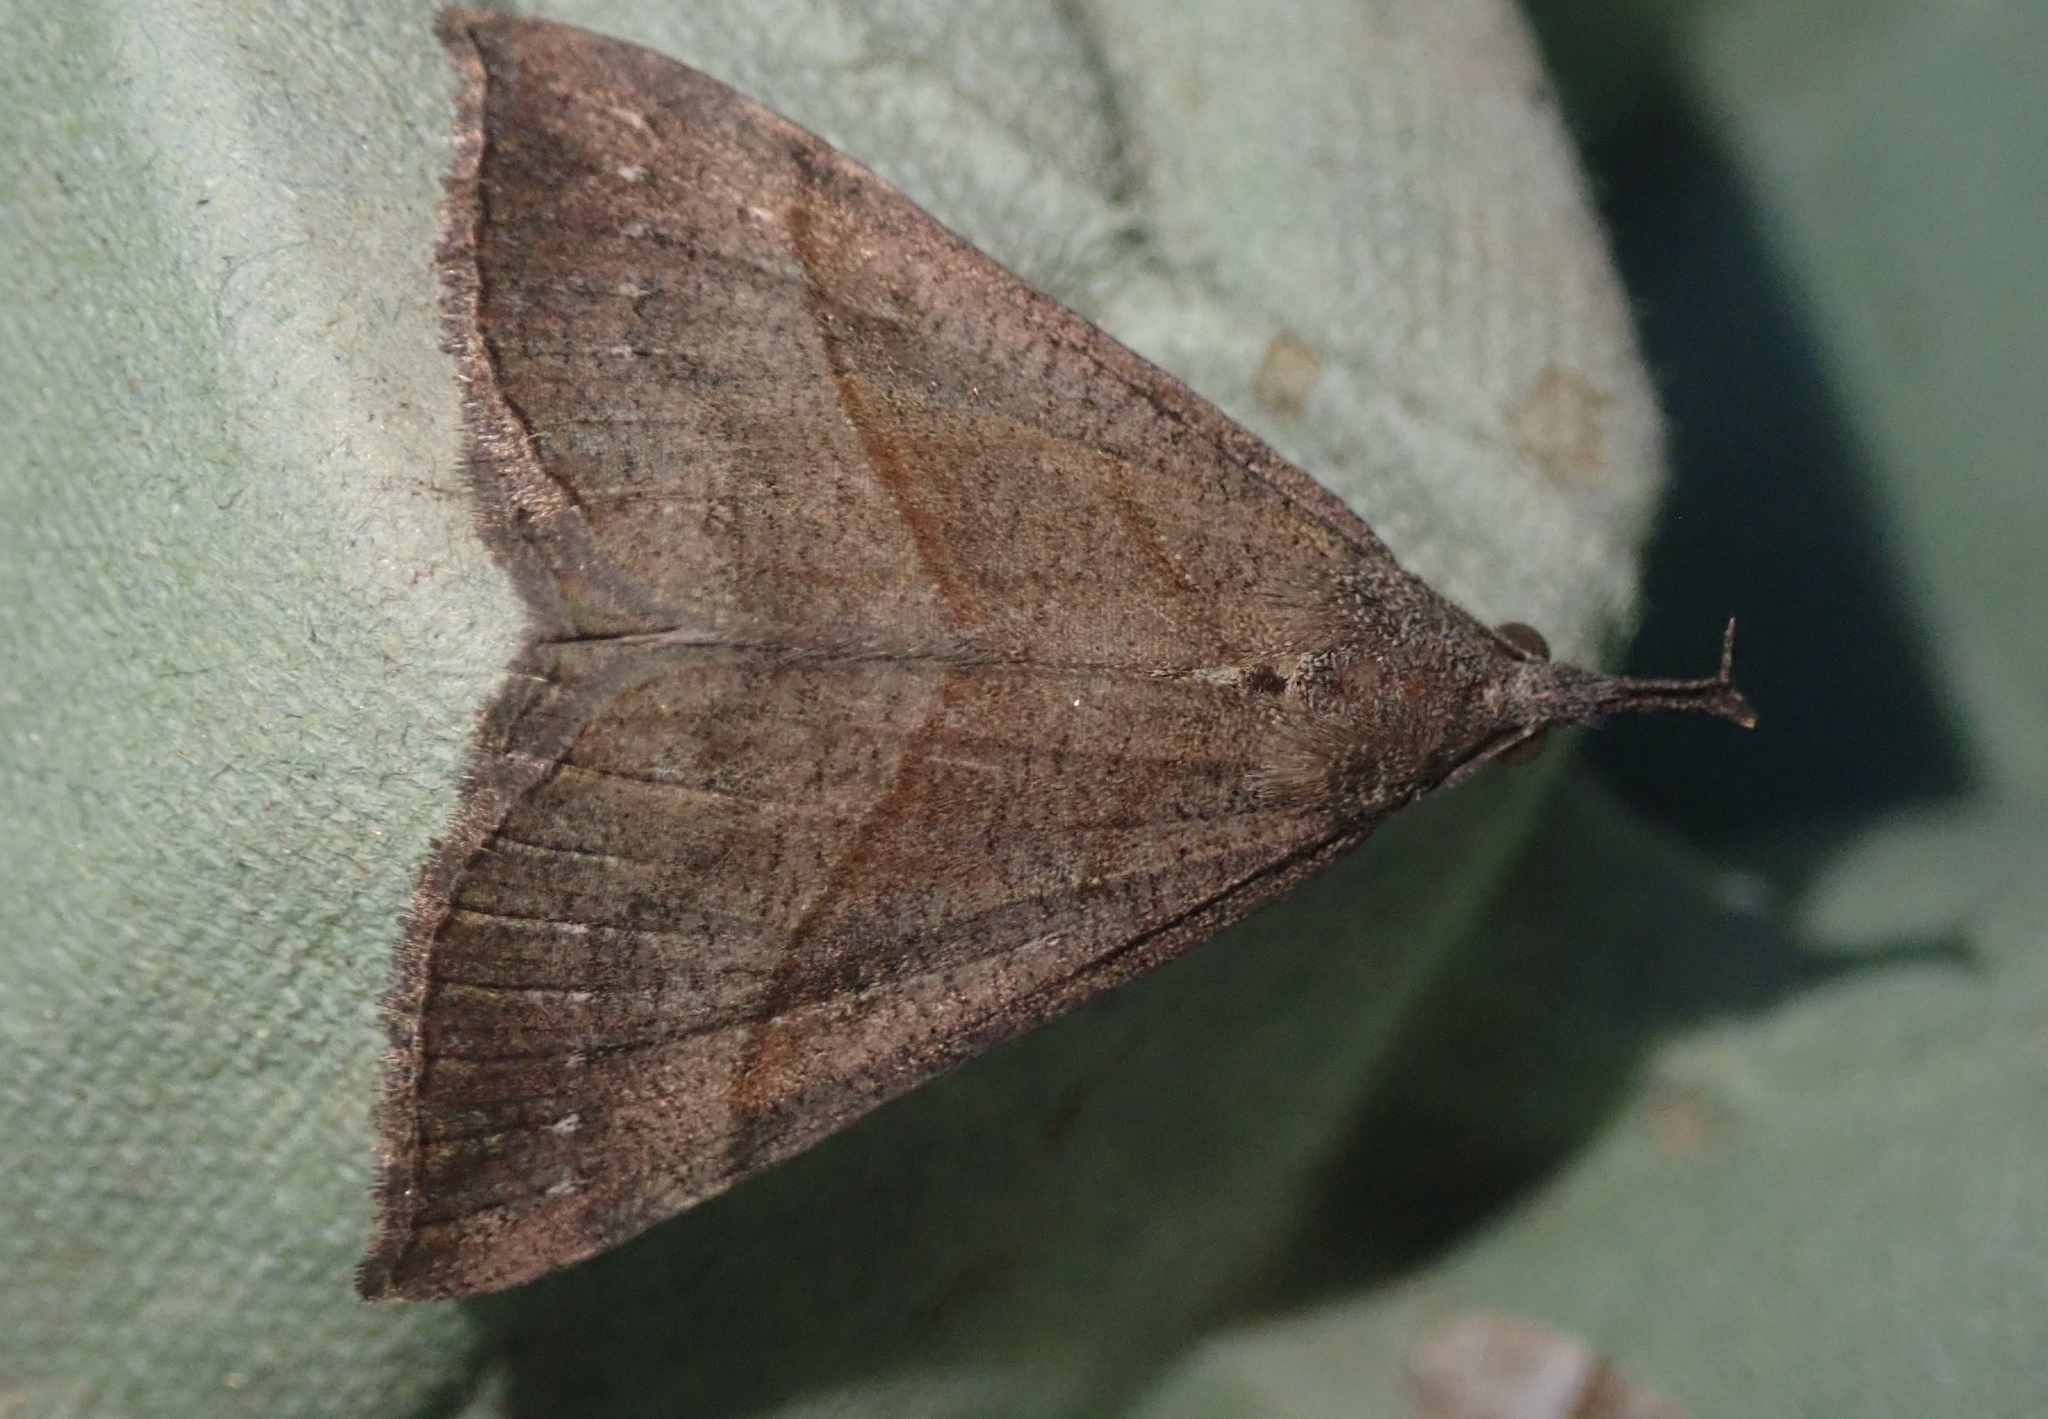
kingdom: Animalia
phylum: Arthropoda
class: Insecta
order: Lepidoptera
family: Erebidae
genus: Hypena
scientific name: Hypena proboscidalis
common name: Snout
